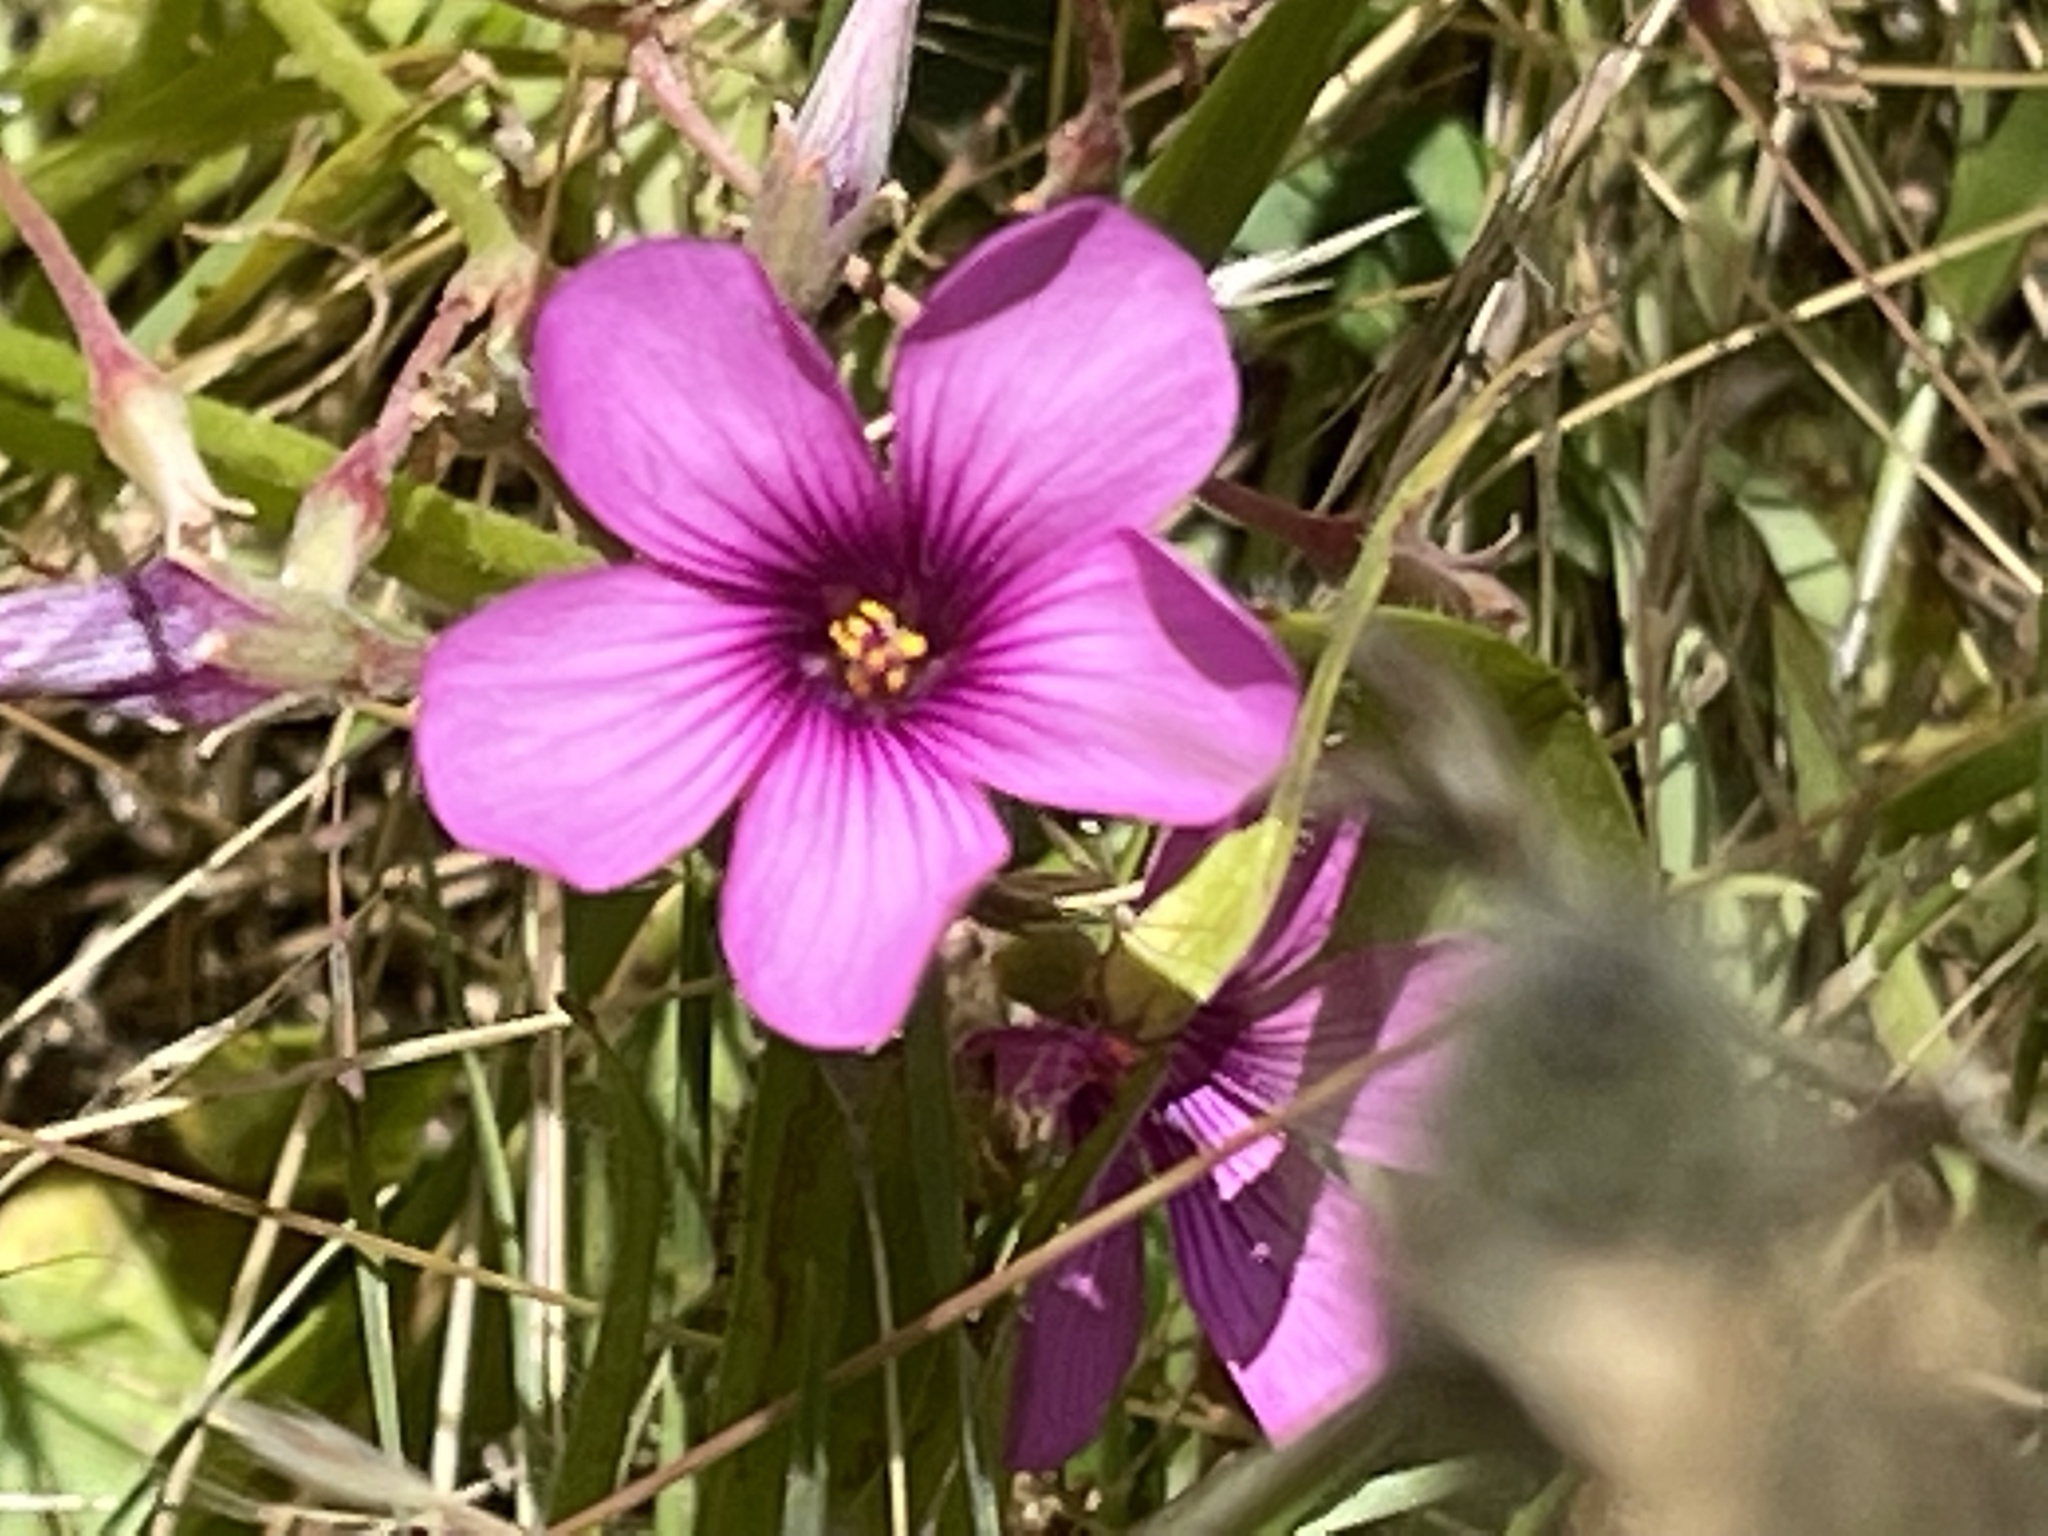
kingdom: Plantae
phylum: Tracheophyta
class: Magnoliopsida
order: Oxalidales
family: Oxalidaceae
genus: Oxalis
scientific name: Oxalis articulata
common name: Pink-sorrel
